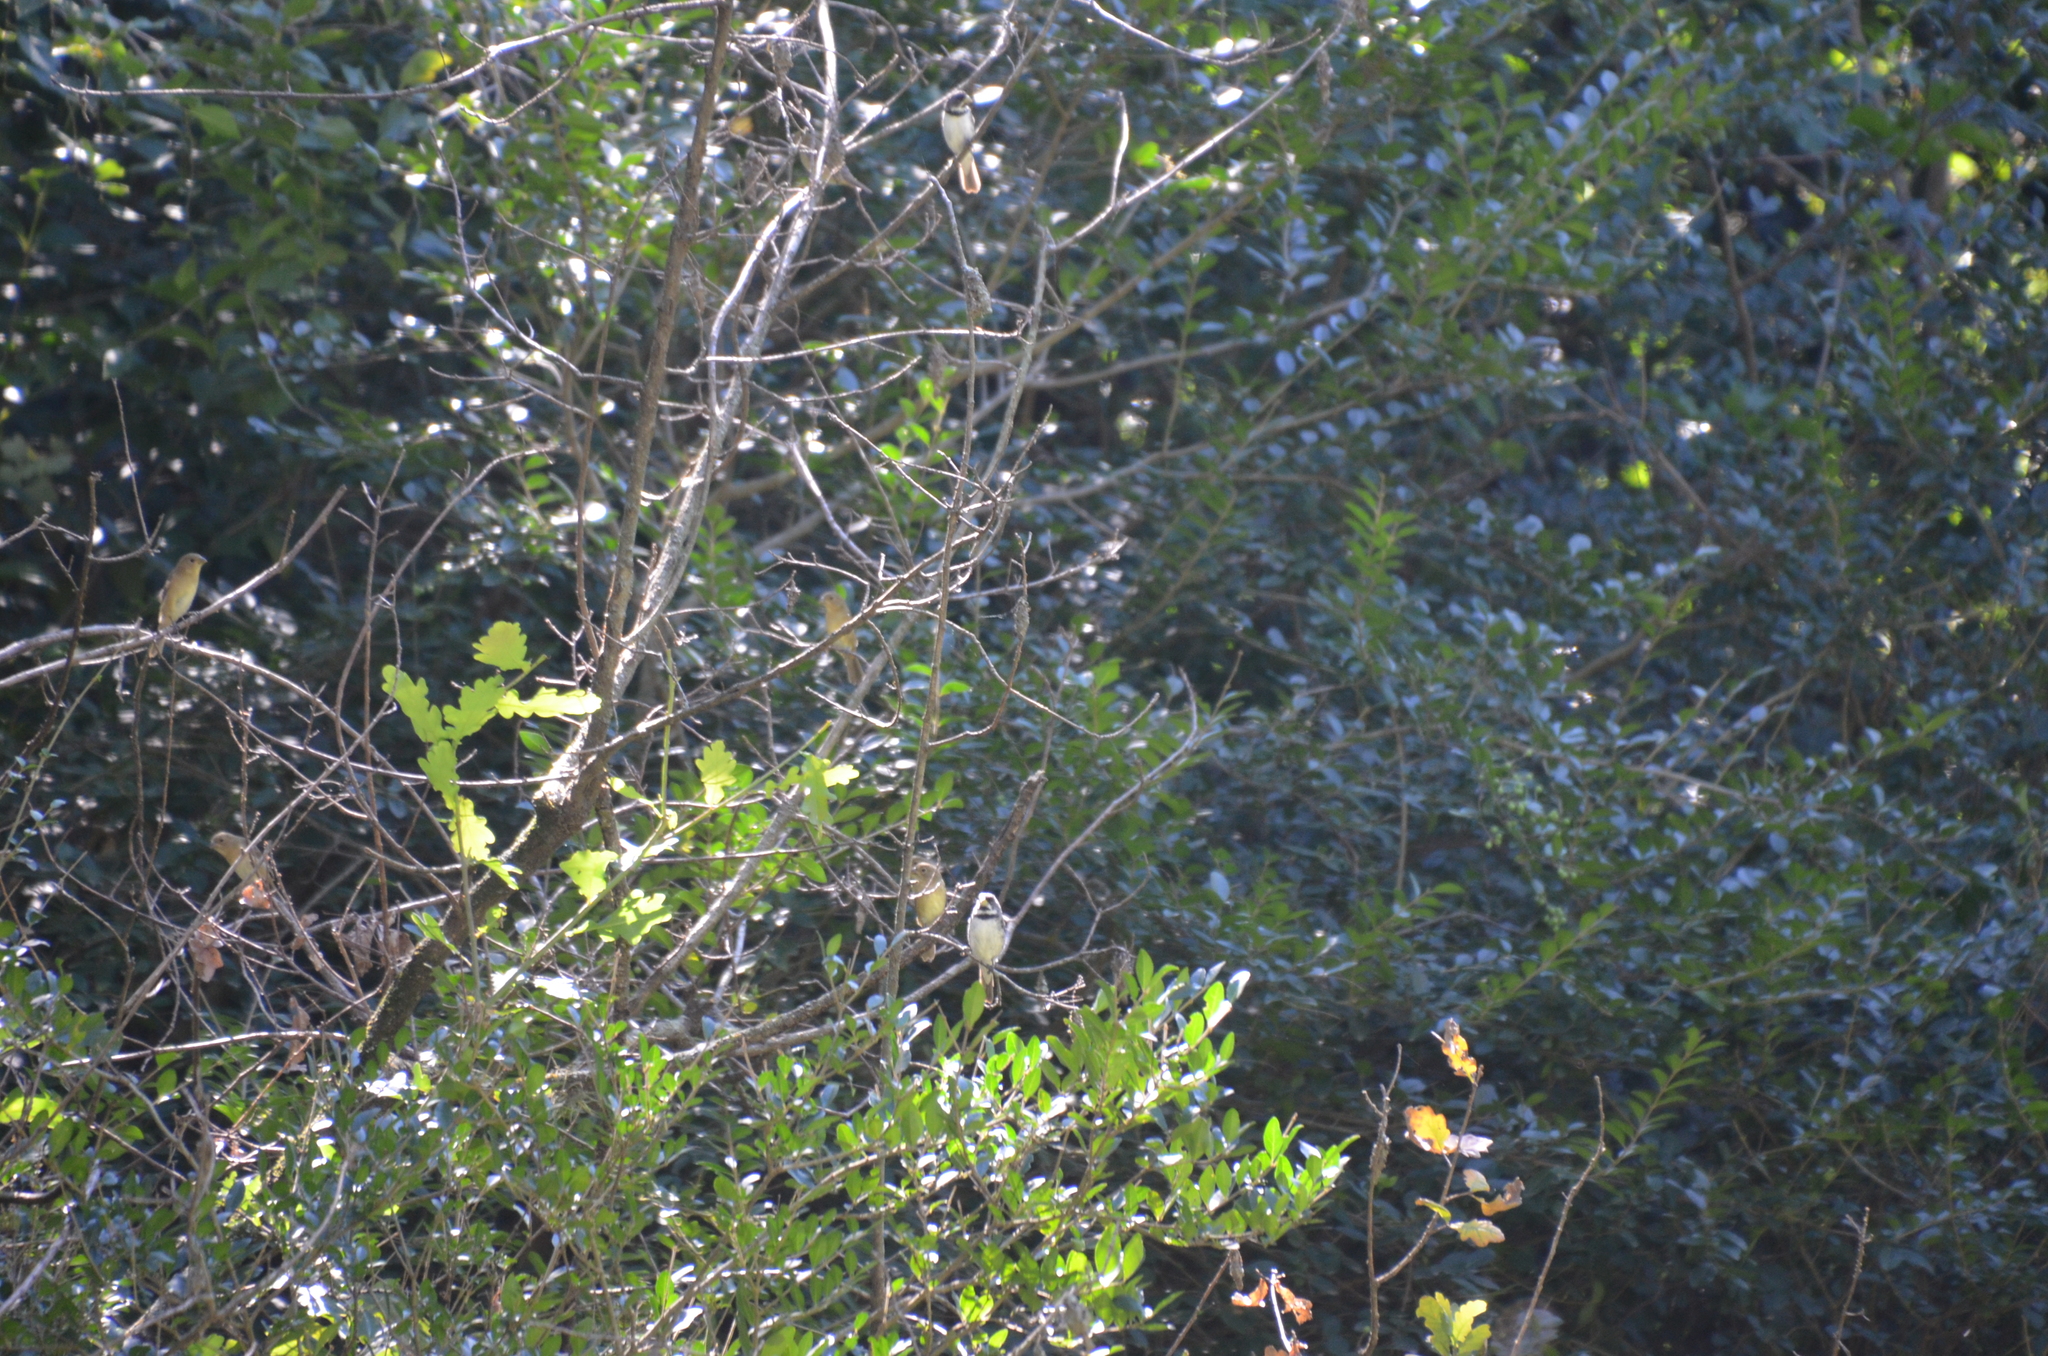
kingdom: Animalia
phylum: Chordata
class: Aves
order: Passeriformes
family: Thraupidae
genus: Sporophila
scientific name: Sporophila caerulescens
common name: Double-collared seedeater
